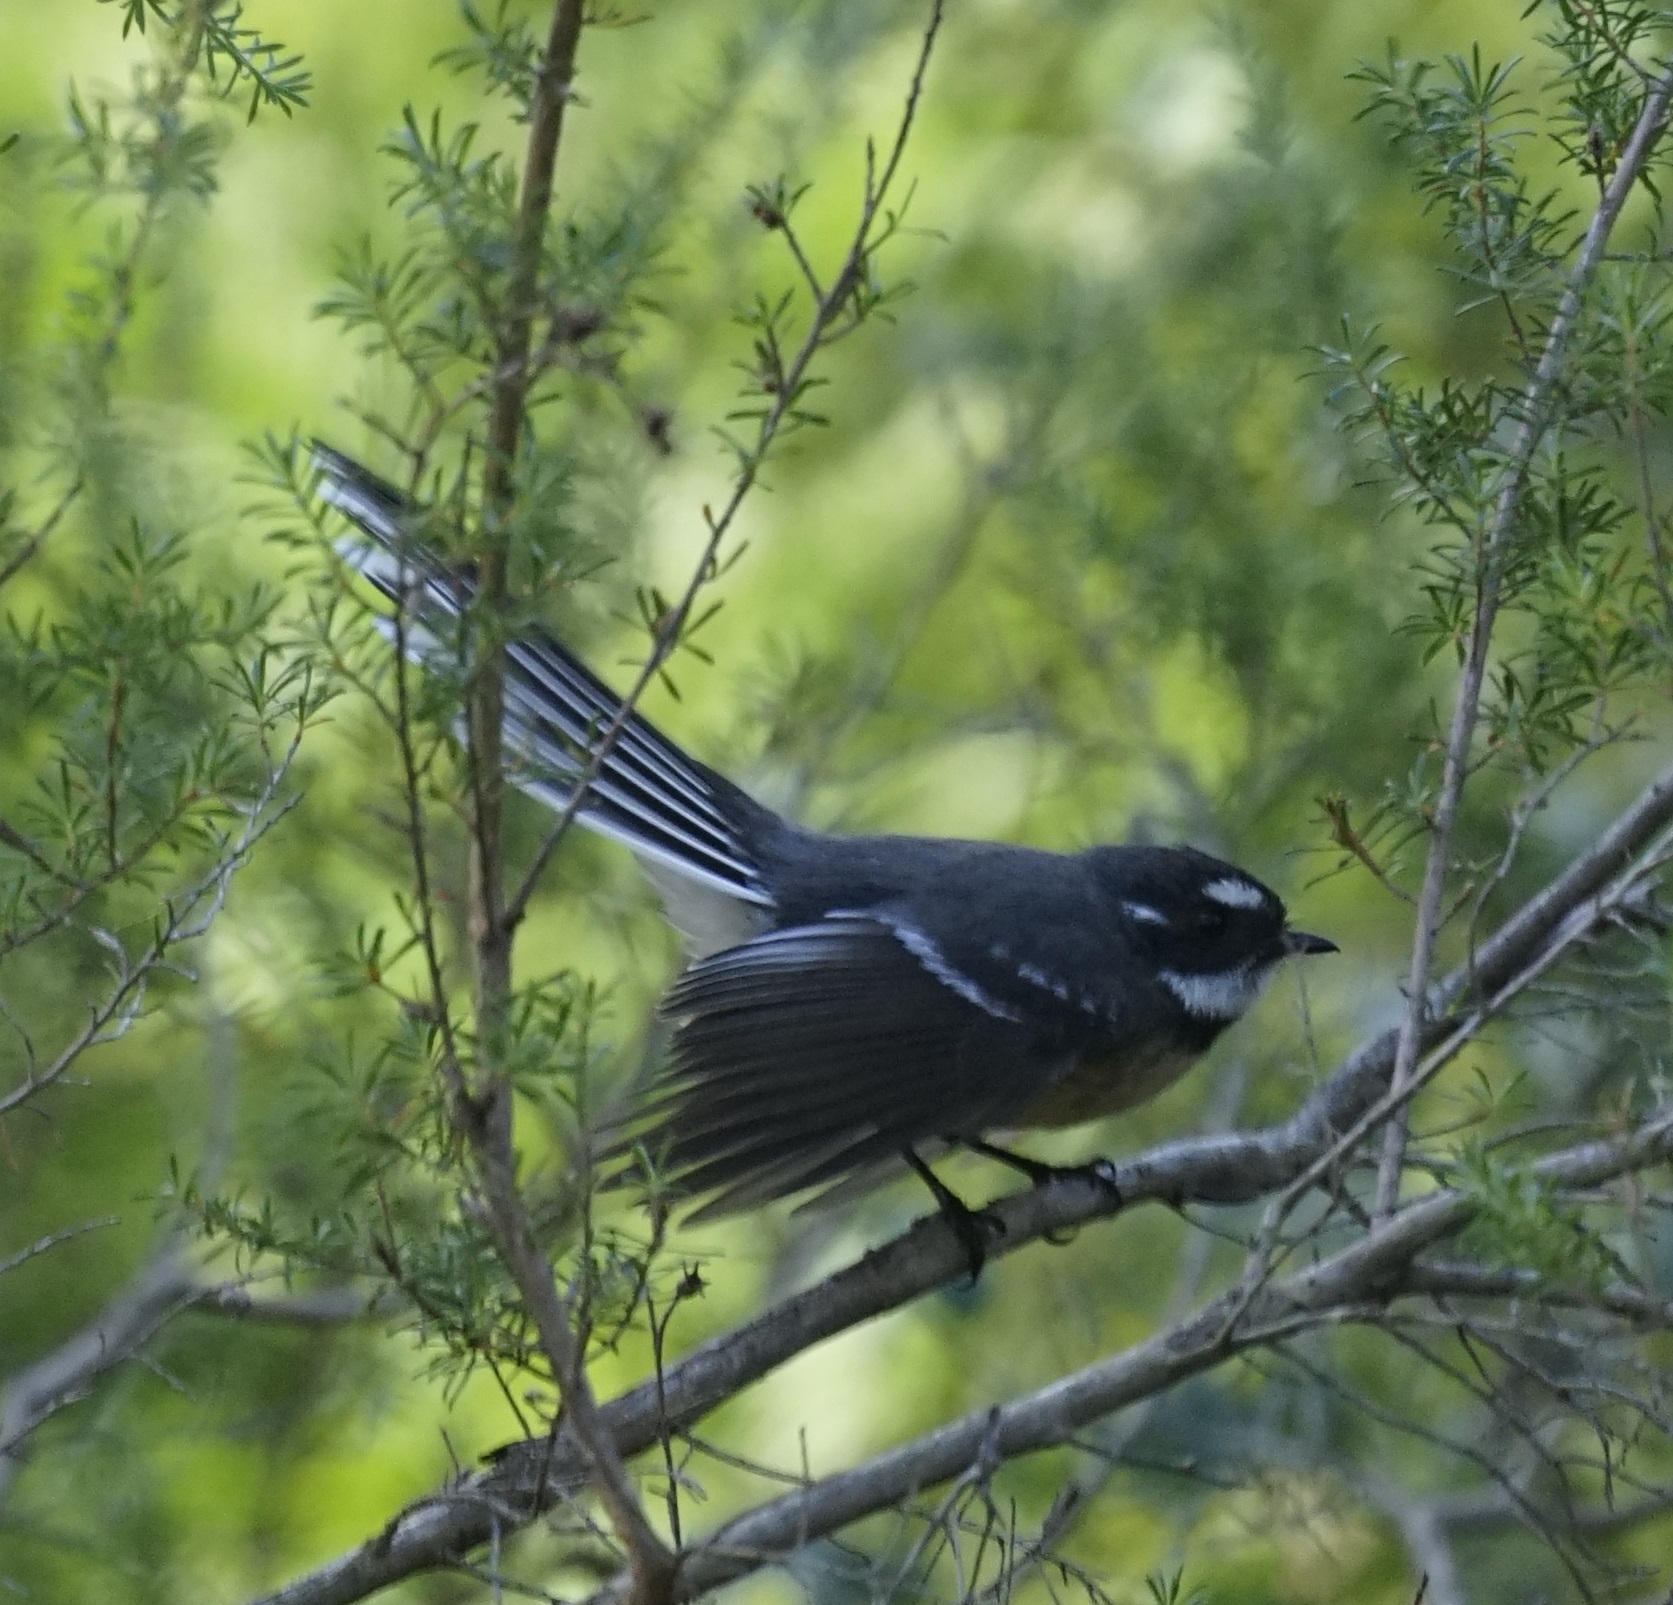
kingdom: Animalia
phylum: Chordata
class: Aves
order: Passeriformes
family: Rhipiduridae
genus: Rhipidura
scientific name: Rhipidura albiscapa
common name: Grey fantail
